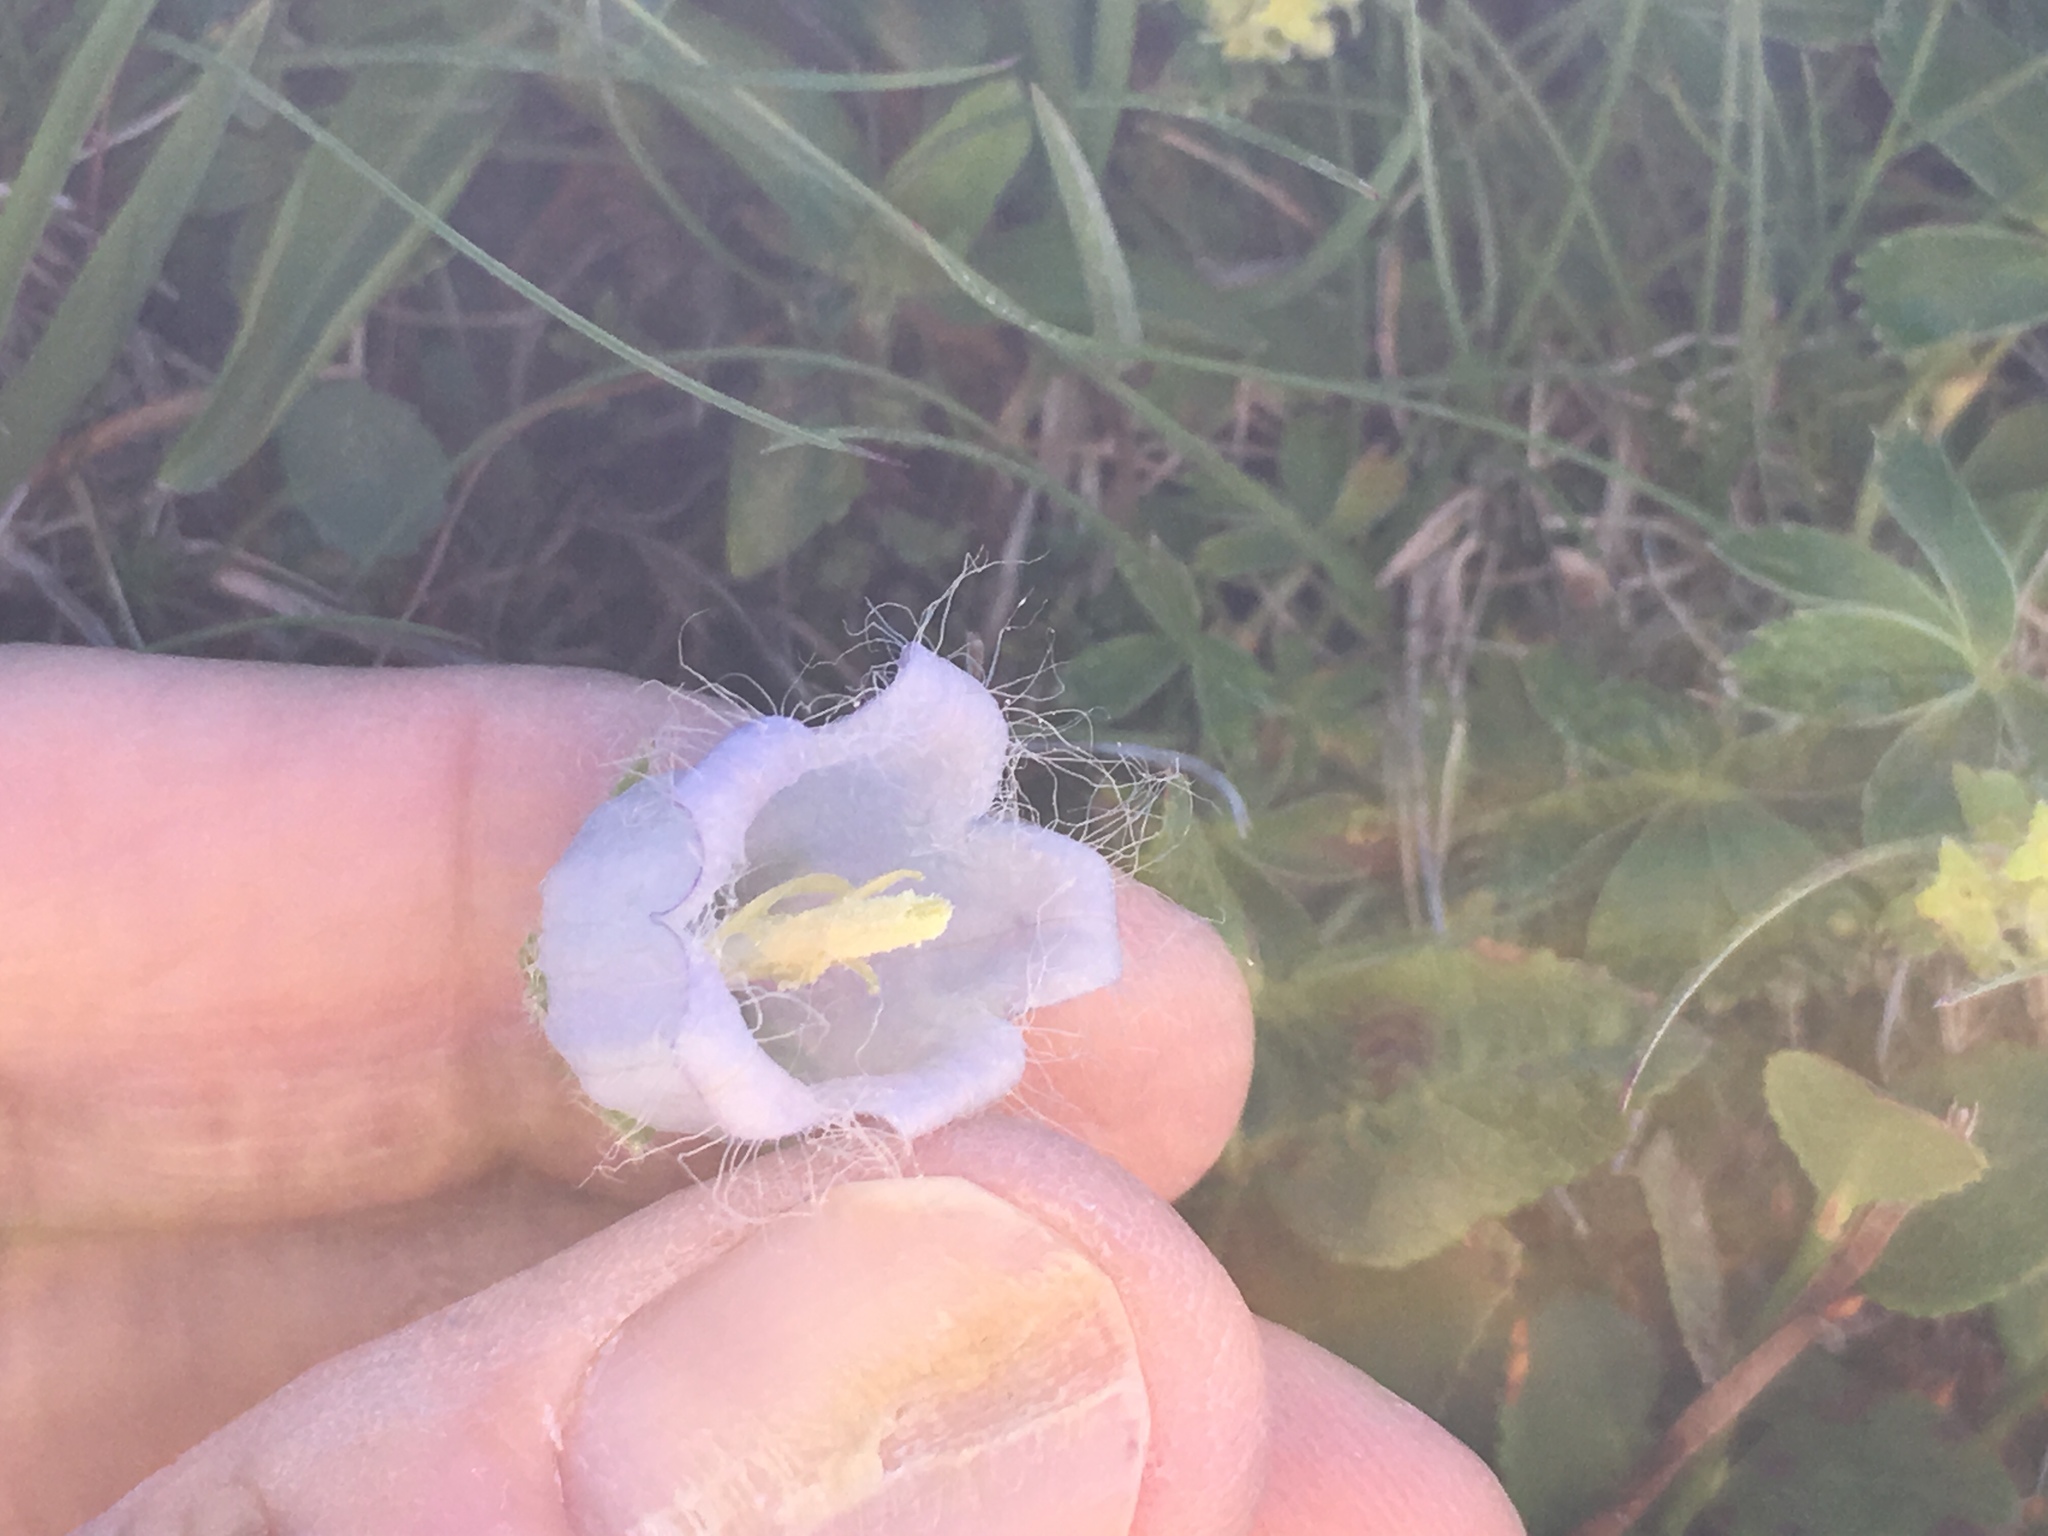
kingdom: Plantae
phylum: Tracheophyta
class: Magnoliopsida
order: Asterales
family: Campanulaceae
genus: Campanula
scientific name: Campanula barbata
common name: Bearded bellflower
